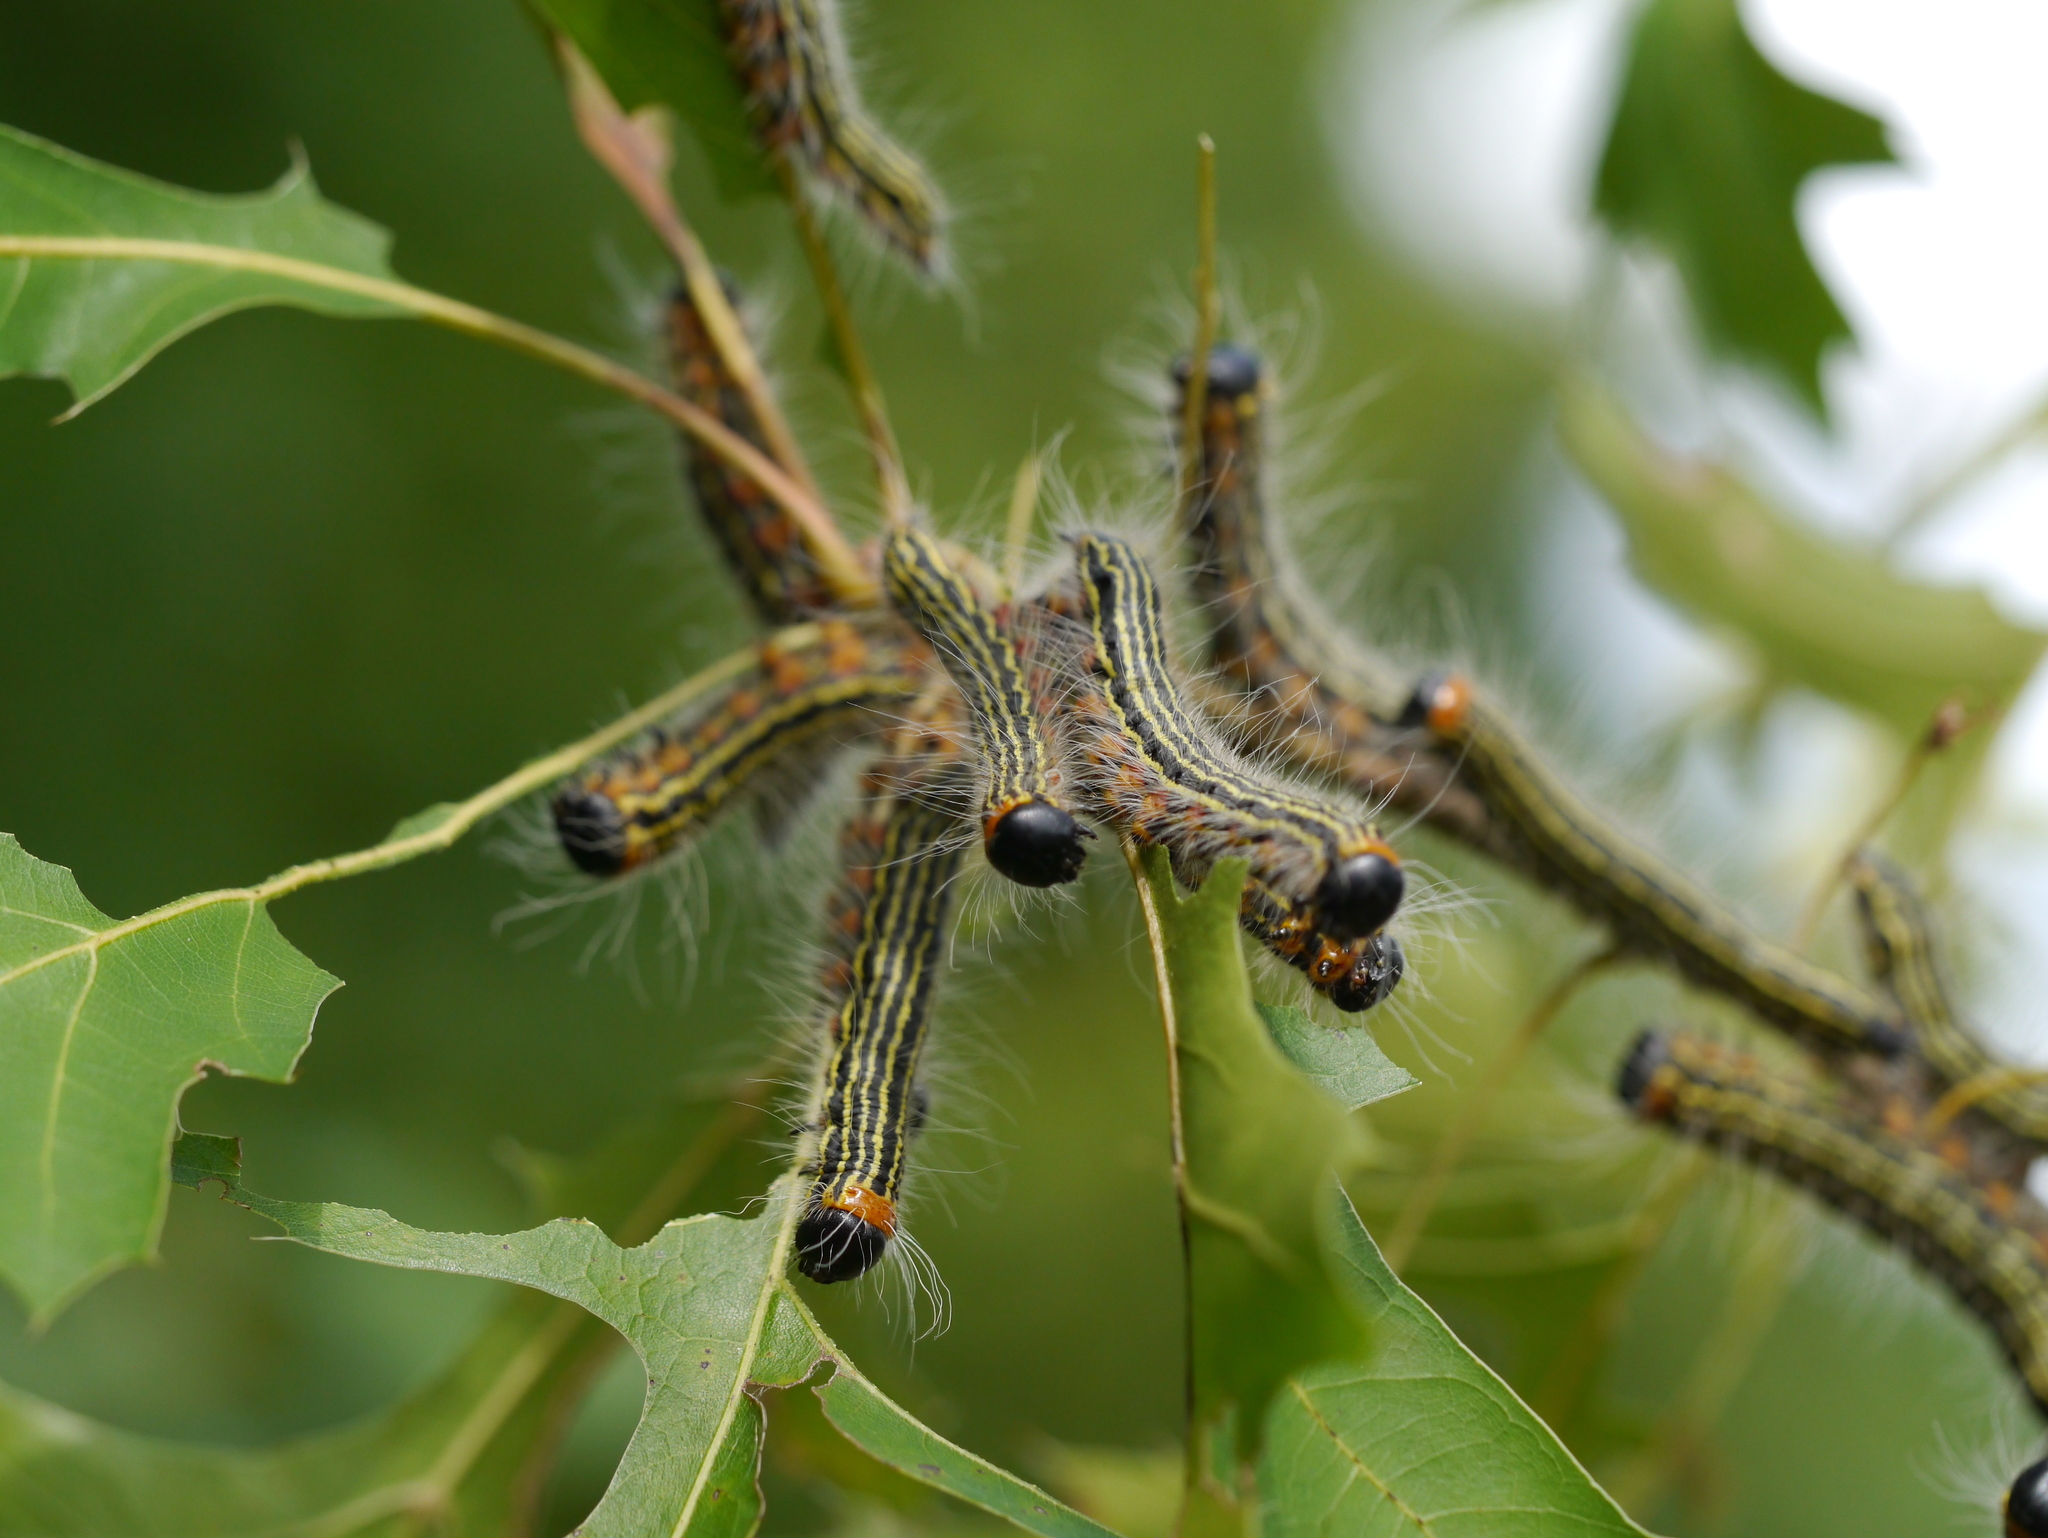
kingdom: Animalia
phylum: Arthropoda
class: Insecta
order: Lepidoptera
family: Notodontidae
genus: Datana
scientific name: Datana ministra
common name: Yellow-necked caterpillar moth
